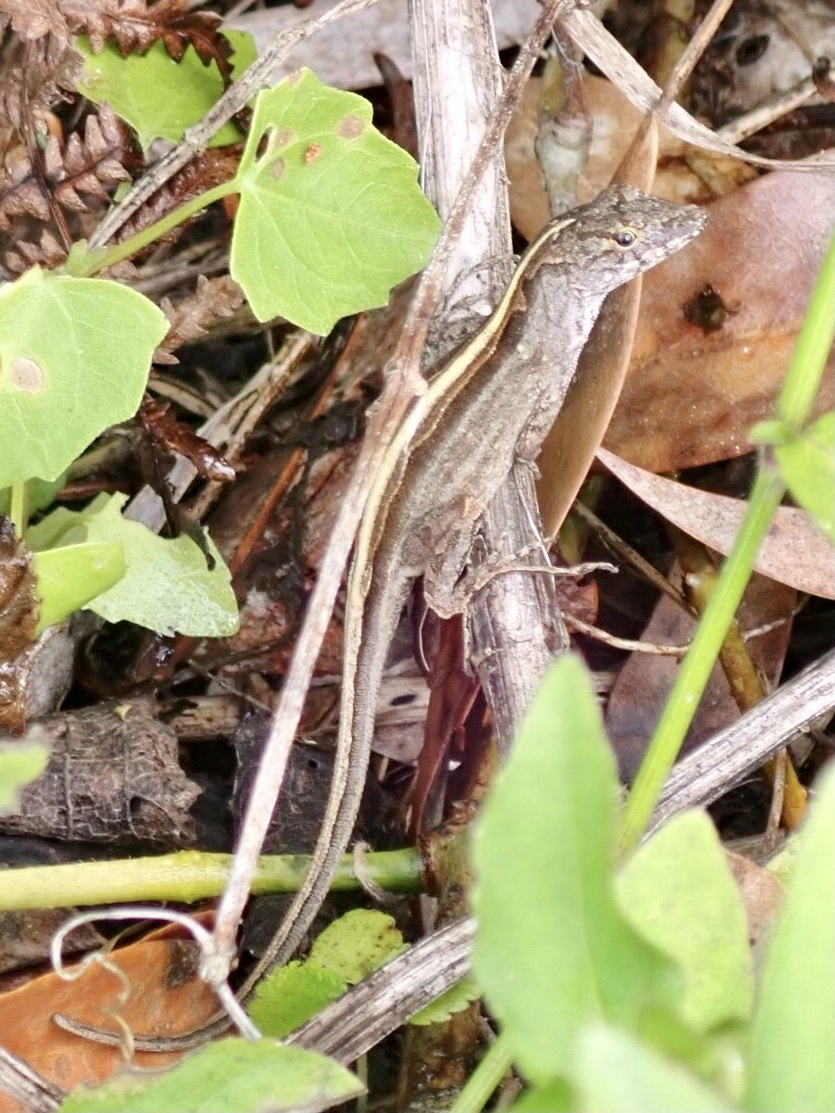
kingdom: Animalia
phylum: Chordata
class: Squamata
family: Dactyloidae
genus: Anolis
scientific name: Anolis sagrei
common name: Brown anole
